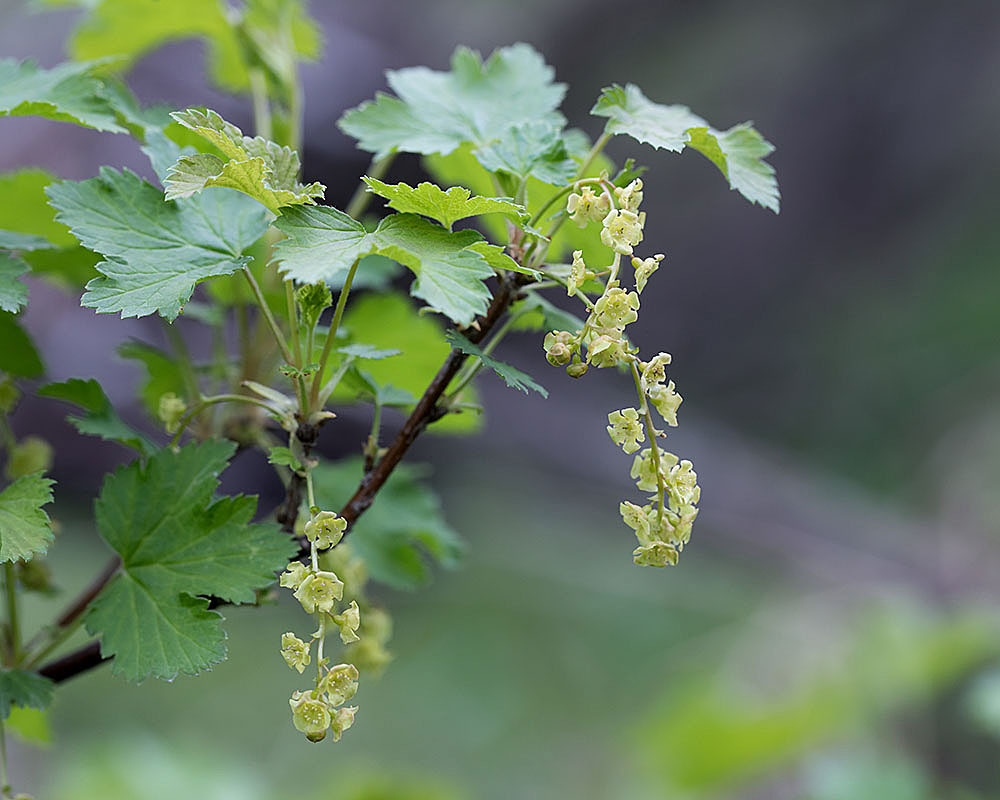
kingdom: Plantae
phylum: Tracheophyta
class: Magnoliopsida
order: Saxifragales
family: Grossulariaceae
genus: Ribes
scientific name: Ribes rubrum
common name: Red currant
